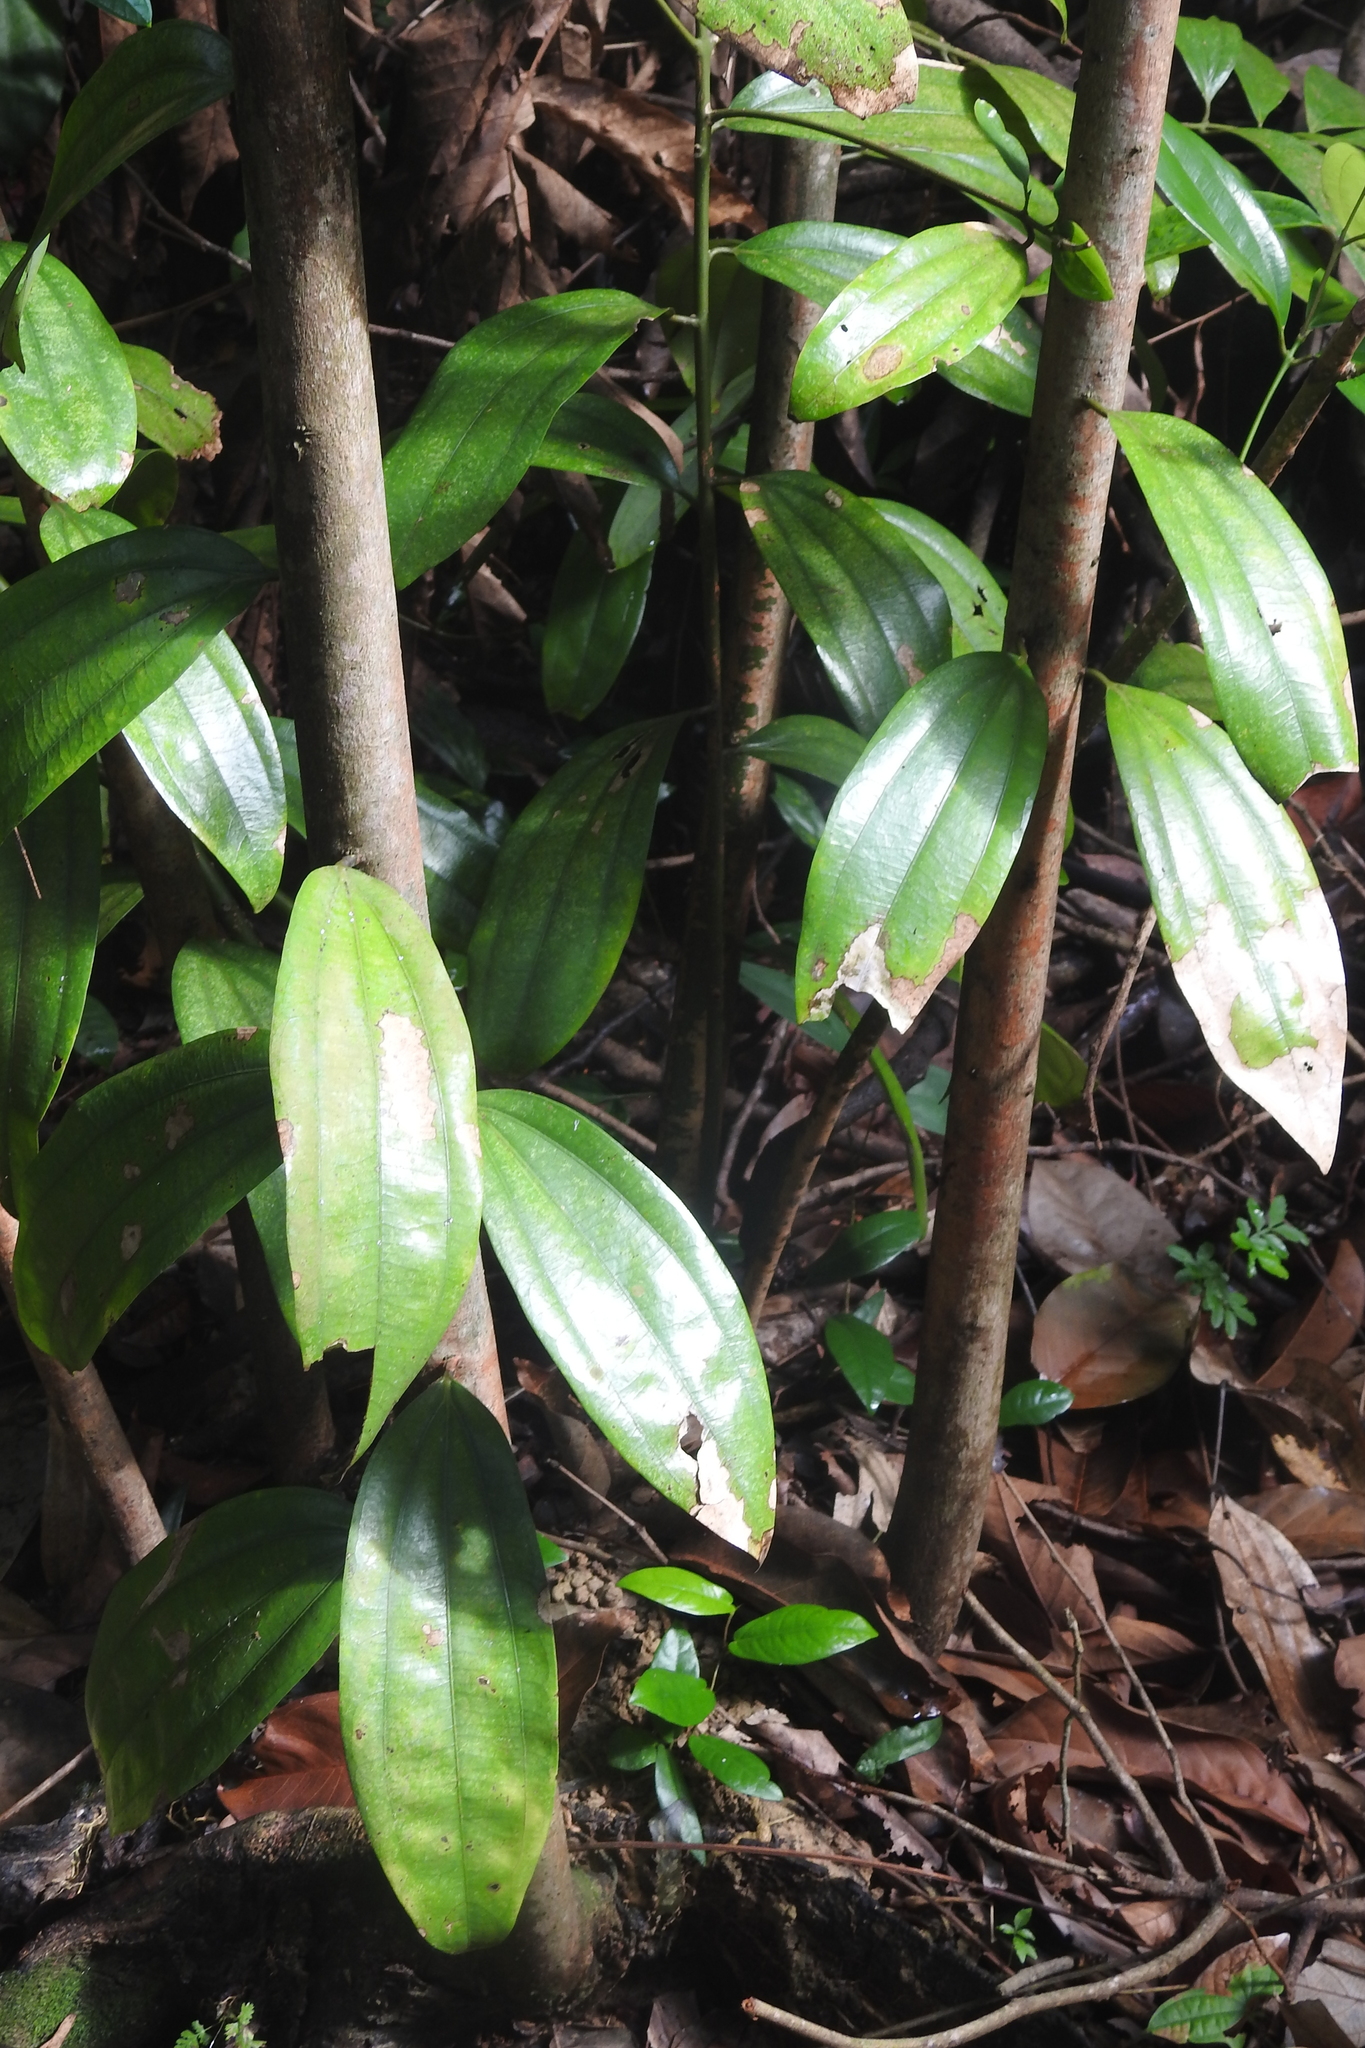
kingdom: Plantae
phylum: Tracheophyta
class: Magnoliopsida
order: Laurales
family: Lauraceae
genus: Cinnamomum
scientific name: Cinnamomum iners
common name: Wild cinnamon
